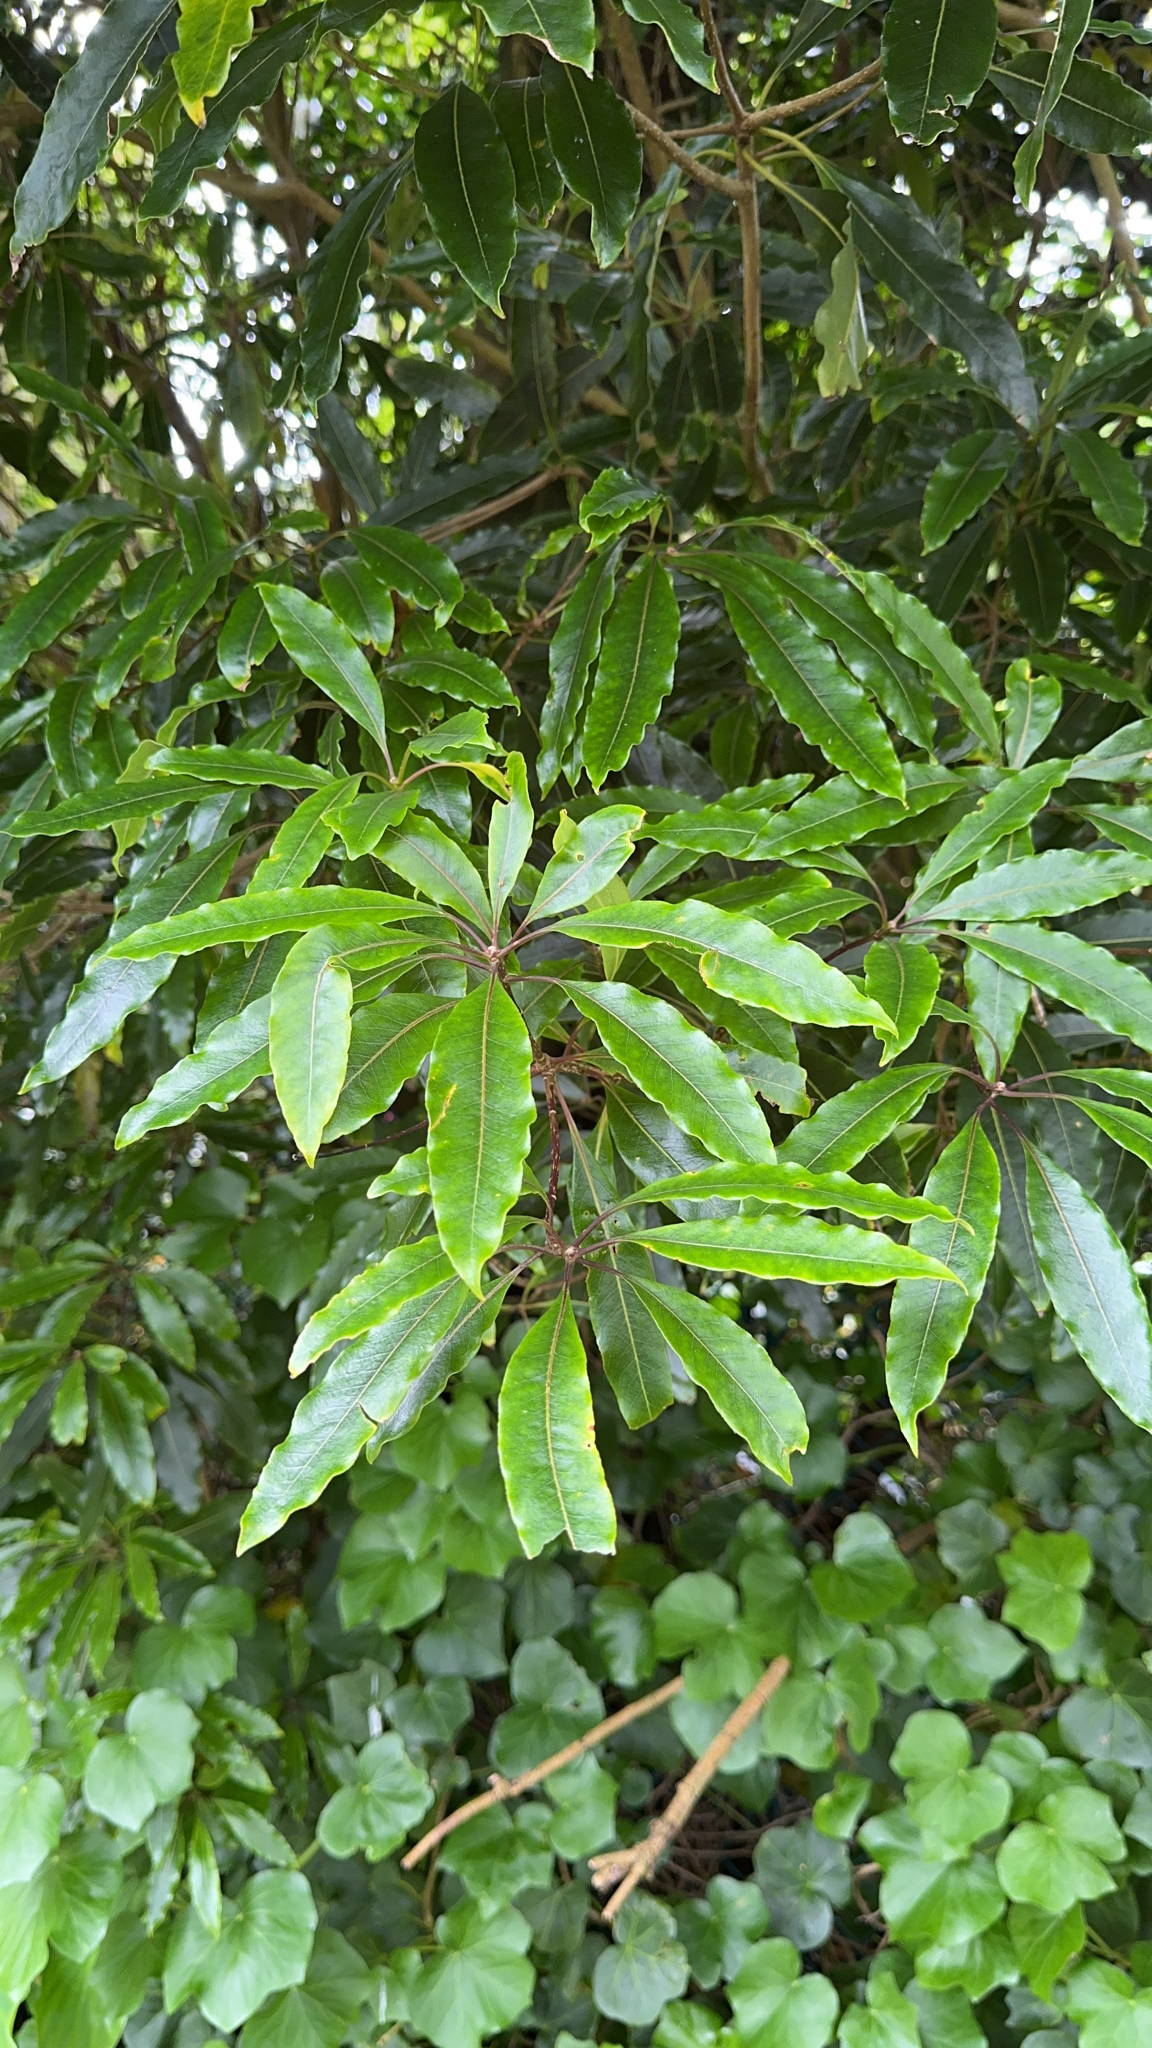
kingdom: Plantae
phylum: Tracheophyta
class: Magnoliopsida
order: Apiales
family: Pittosporaceae
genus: Pittosporum
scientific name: Pittosporum undulatum
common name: Australian cheesewood
